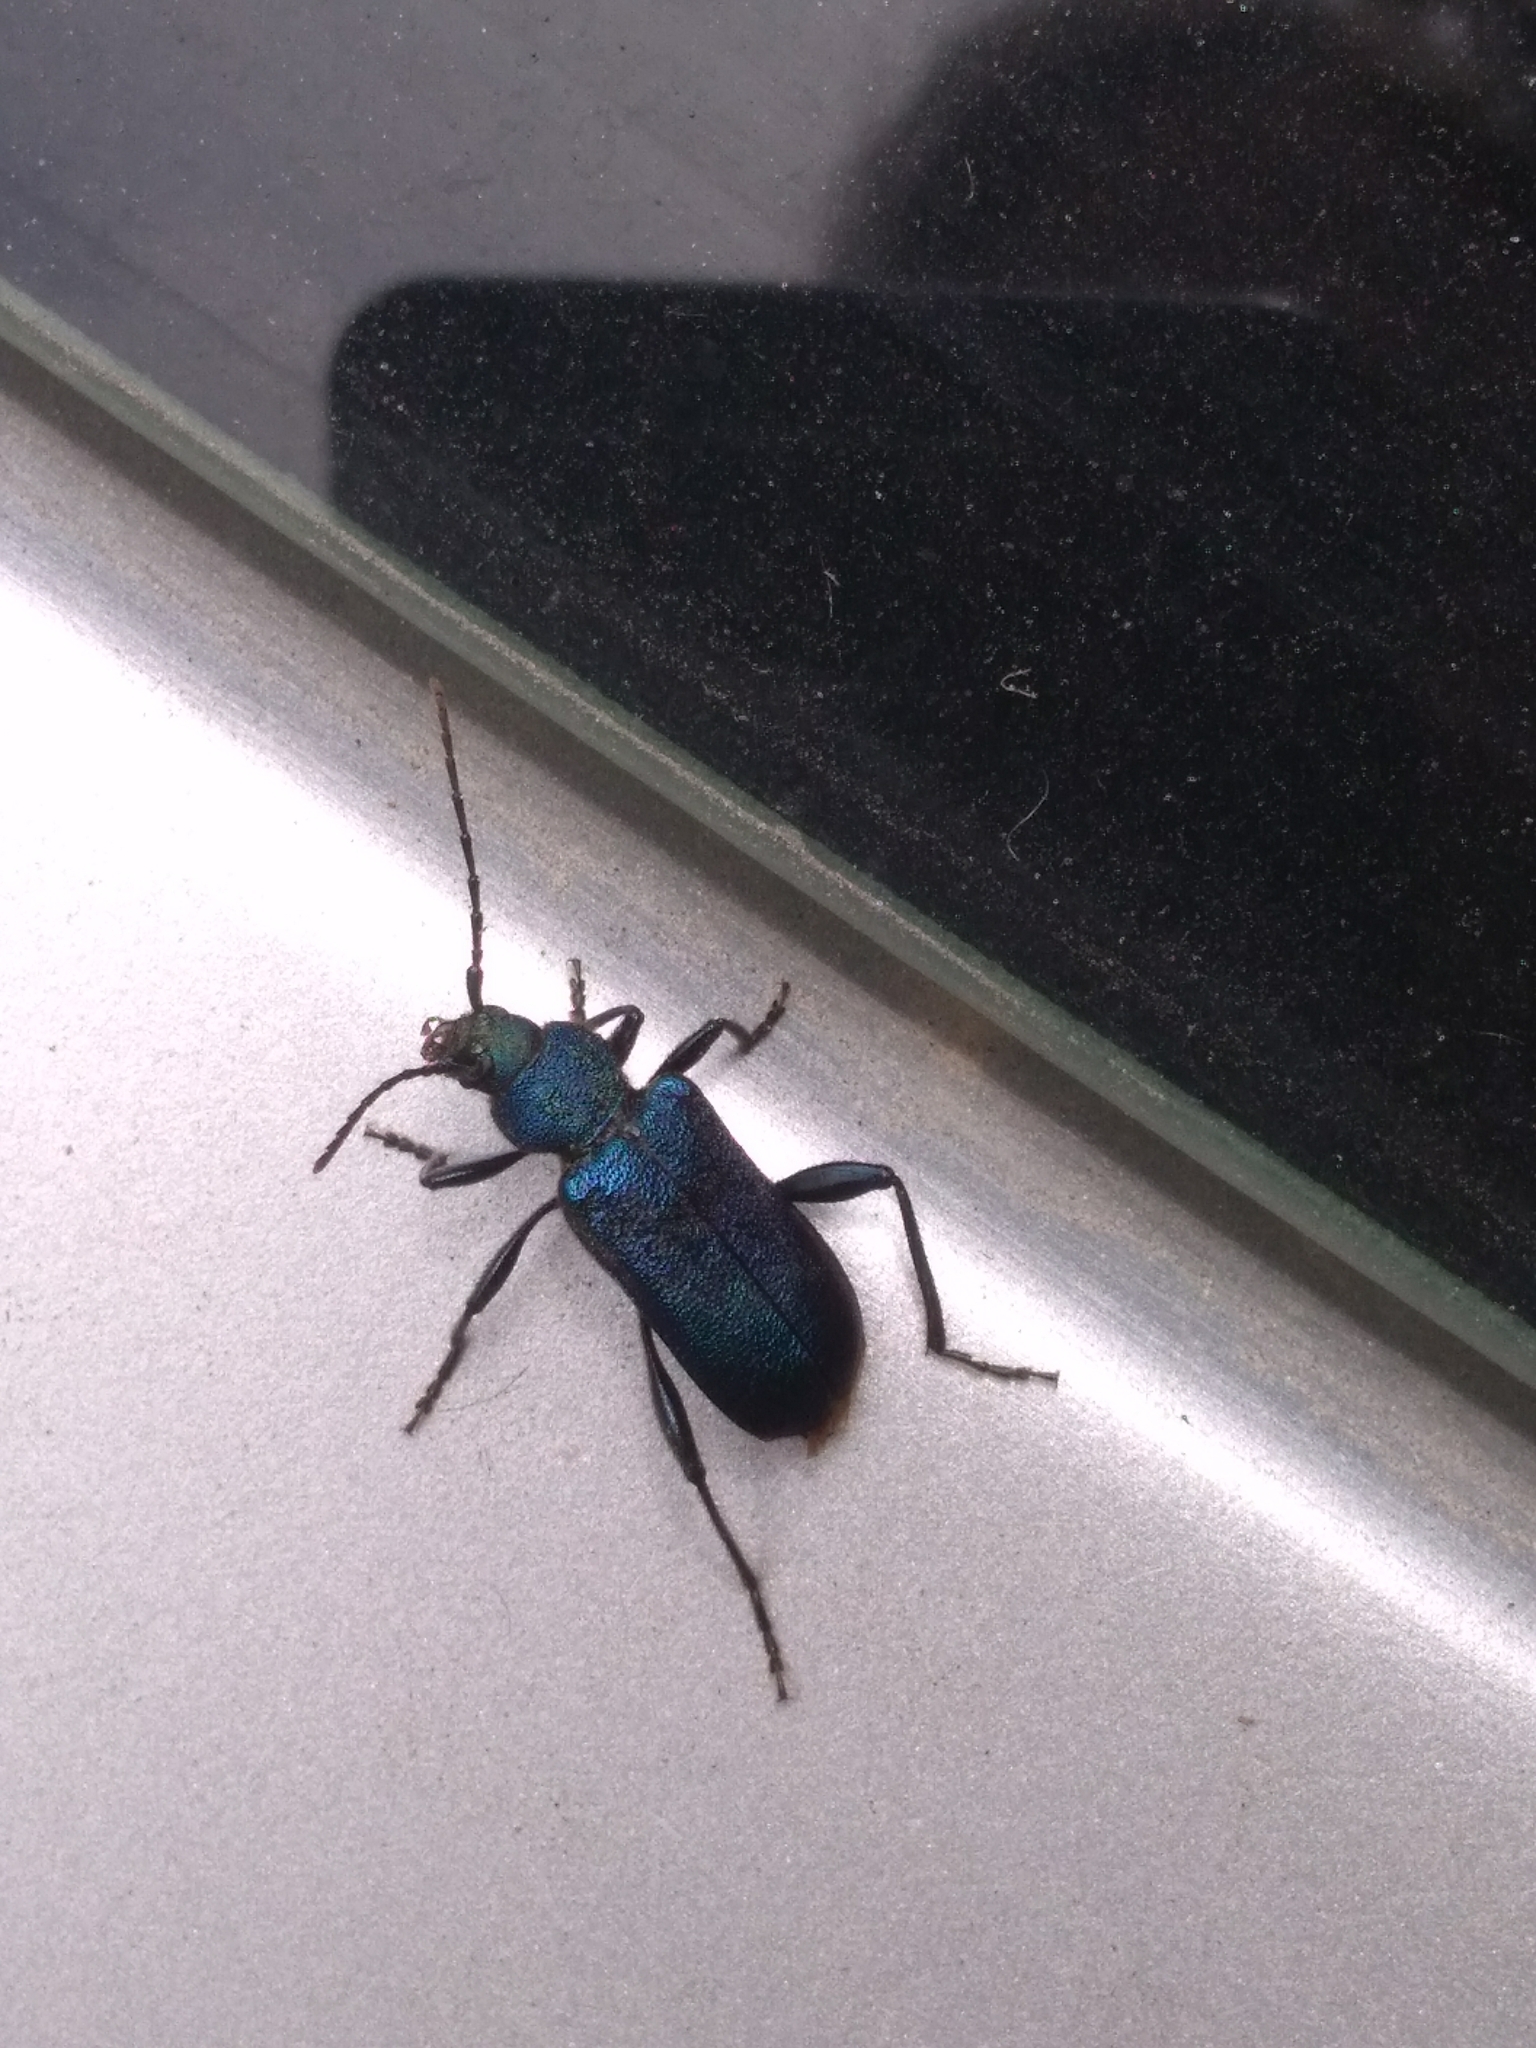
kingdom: Animalia
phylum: Arthropoda
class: Insecta
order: Coleoptera
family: Cerambycidae
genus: Callidium
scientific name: Callidium violaceum
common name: Violet tanbark beetle
